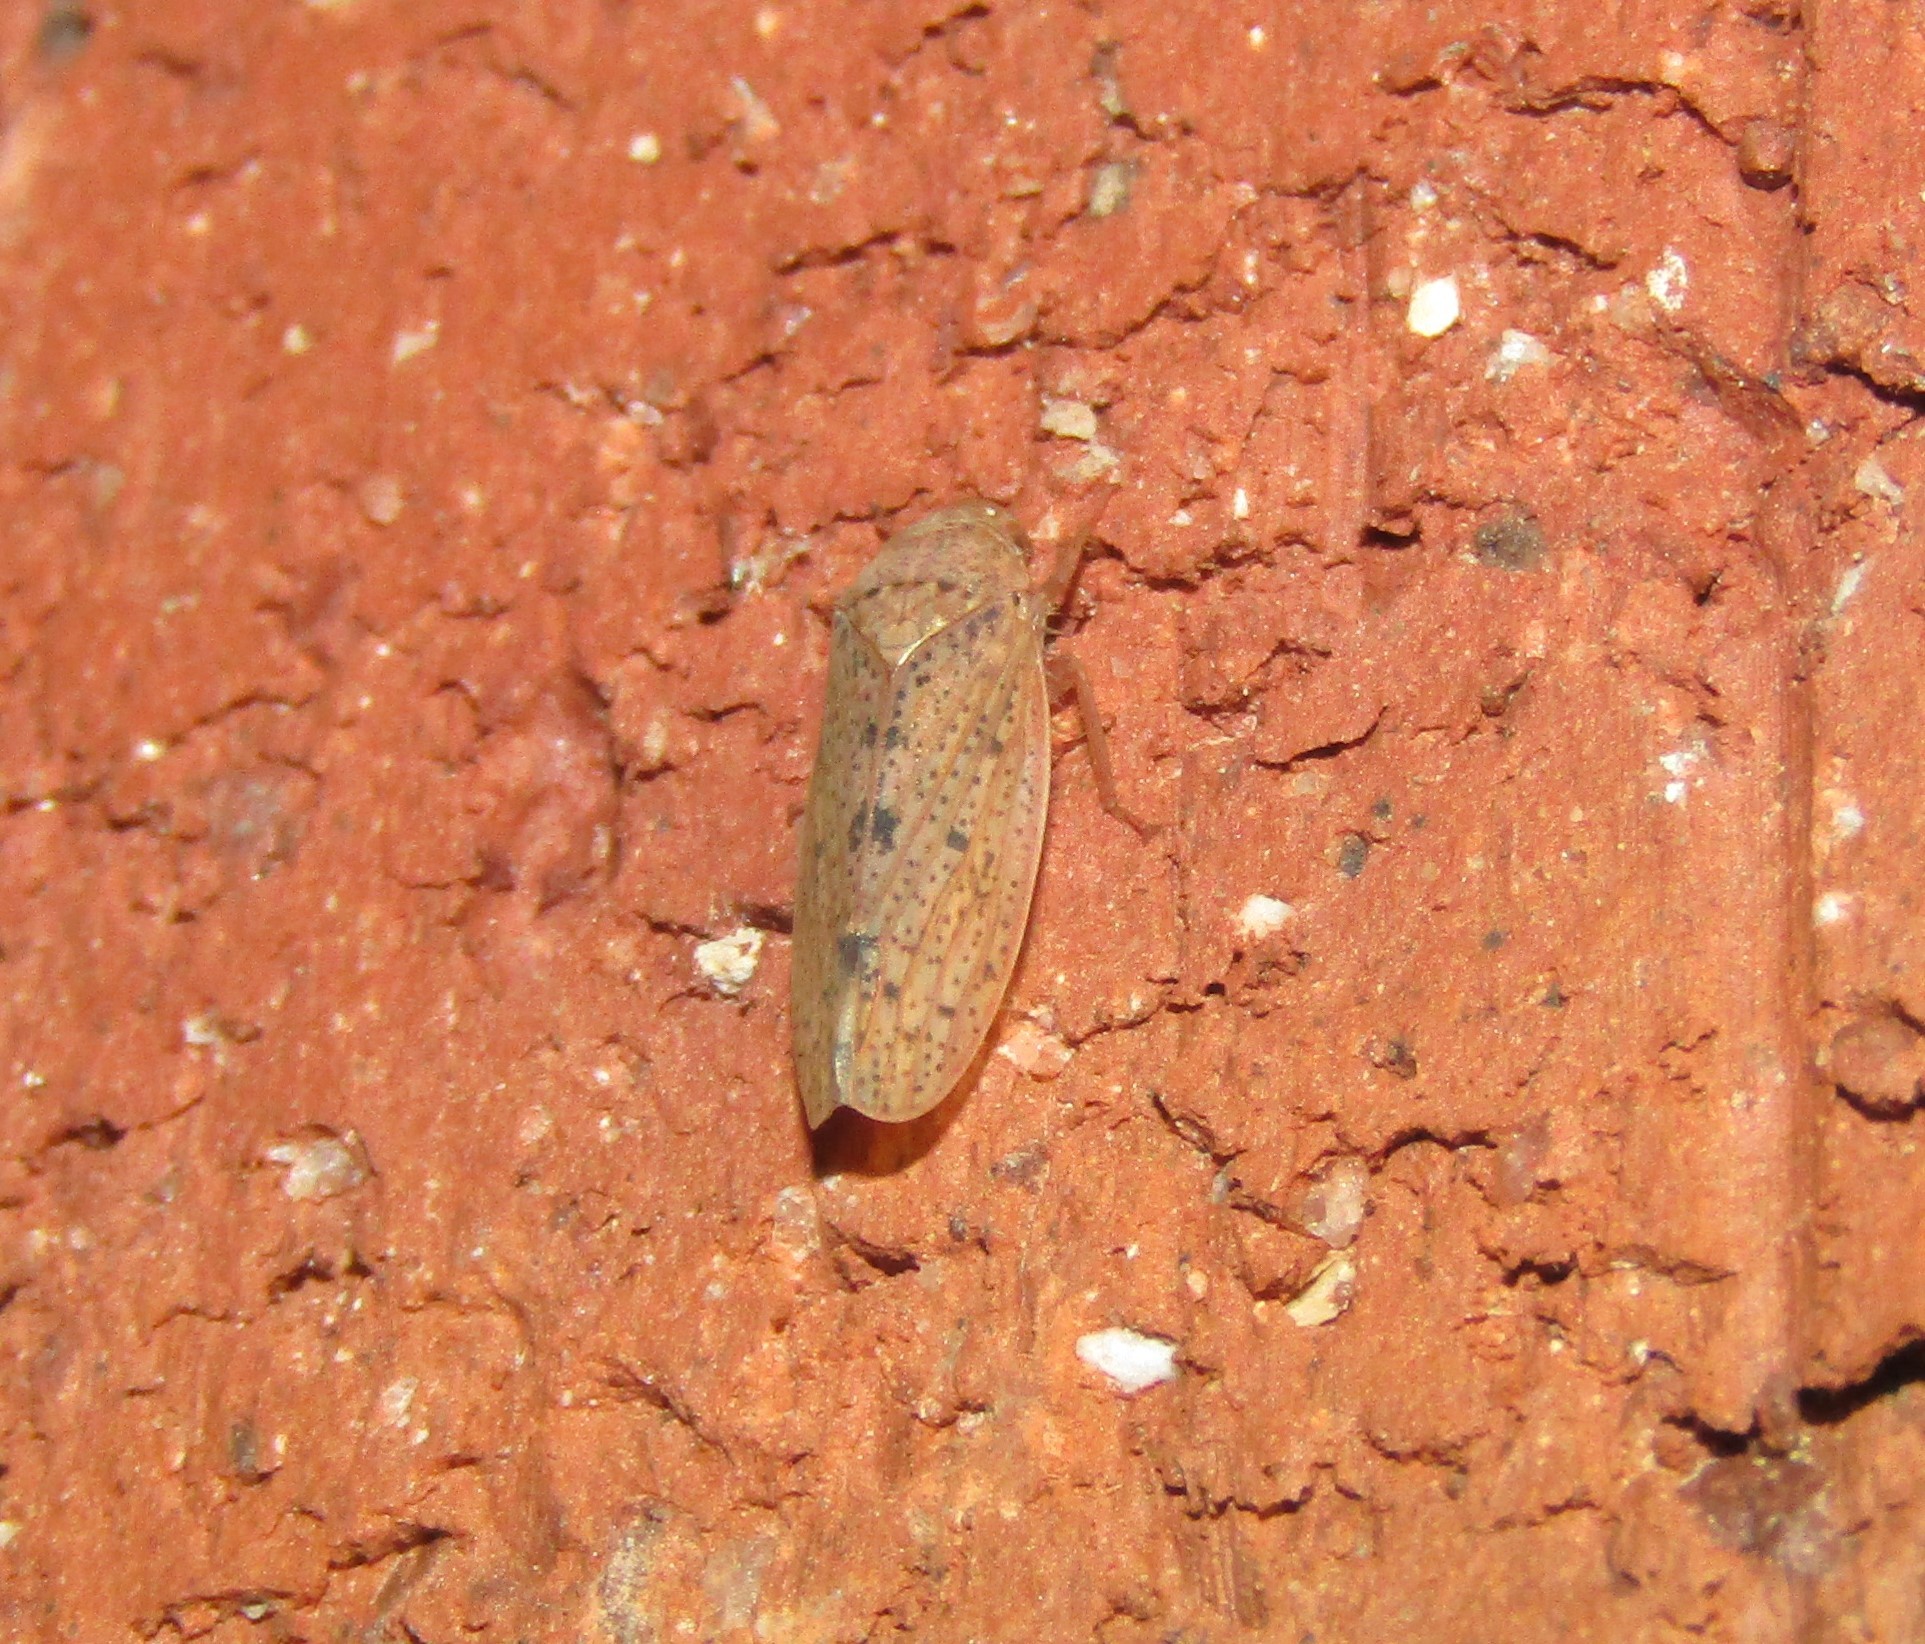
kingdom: Animalia
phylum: Arthropoda
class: Insecta
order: Hemiptera
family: Cicadellidae
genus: Ponana
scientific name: Ponana puncticollis
